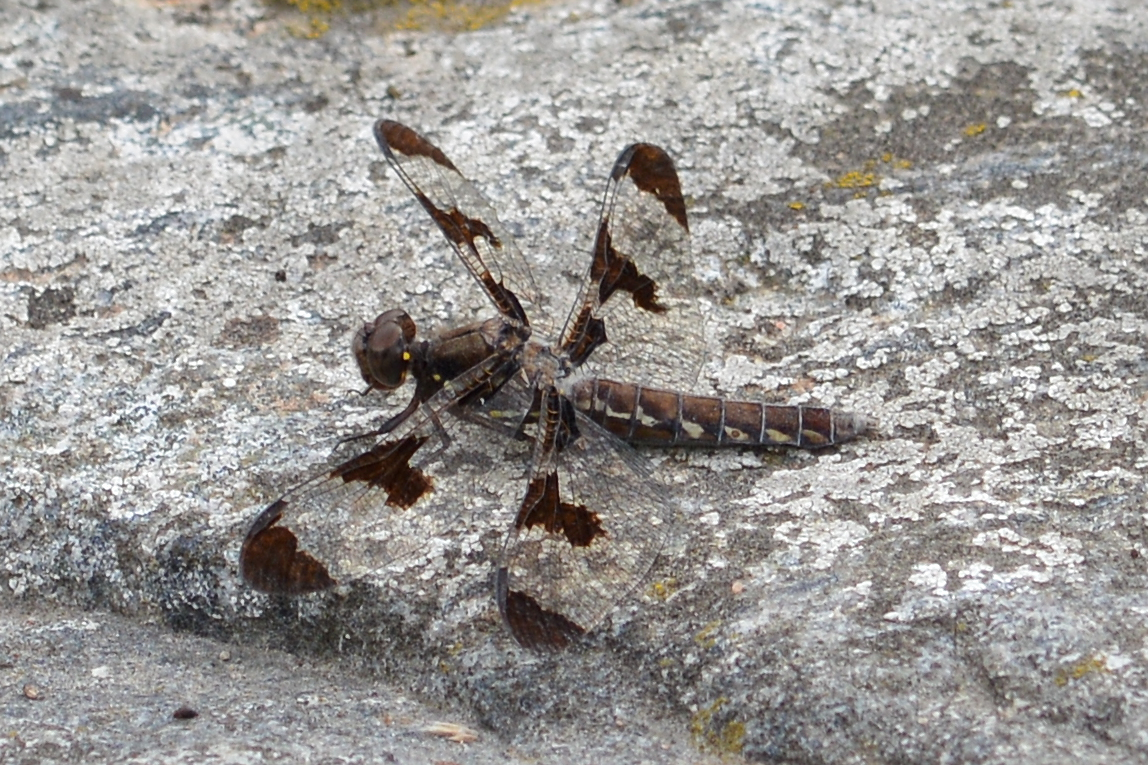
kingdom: Animalia
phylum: Arthropoda
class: Insecta
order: Odonata
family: Libellulidae
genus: Plathemis
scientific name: Plathemis lydia
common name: Common whitetail
